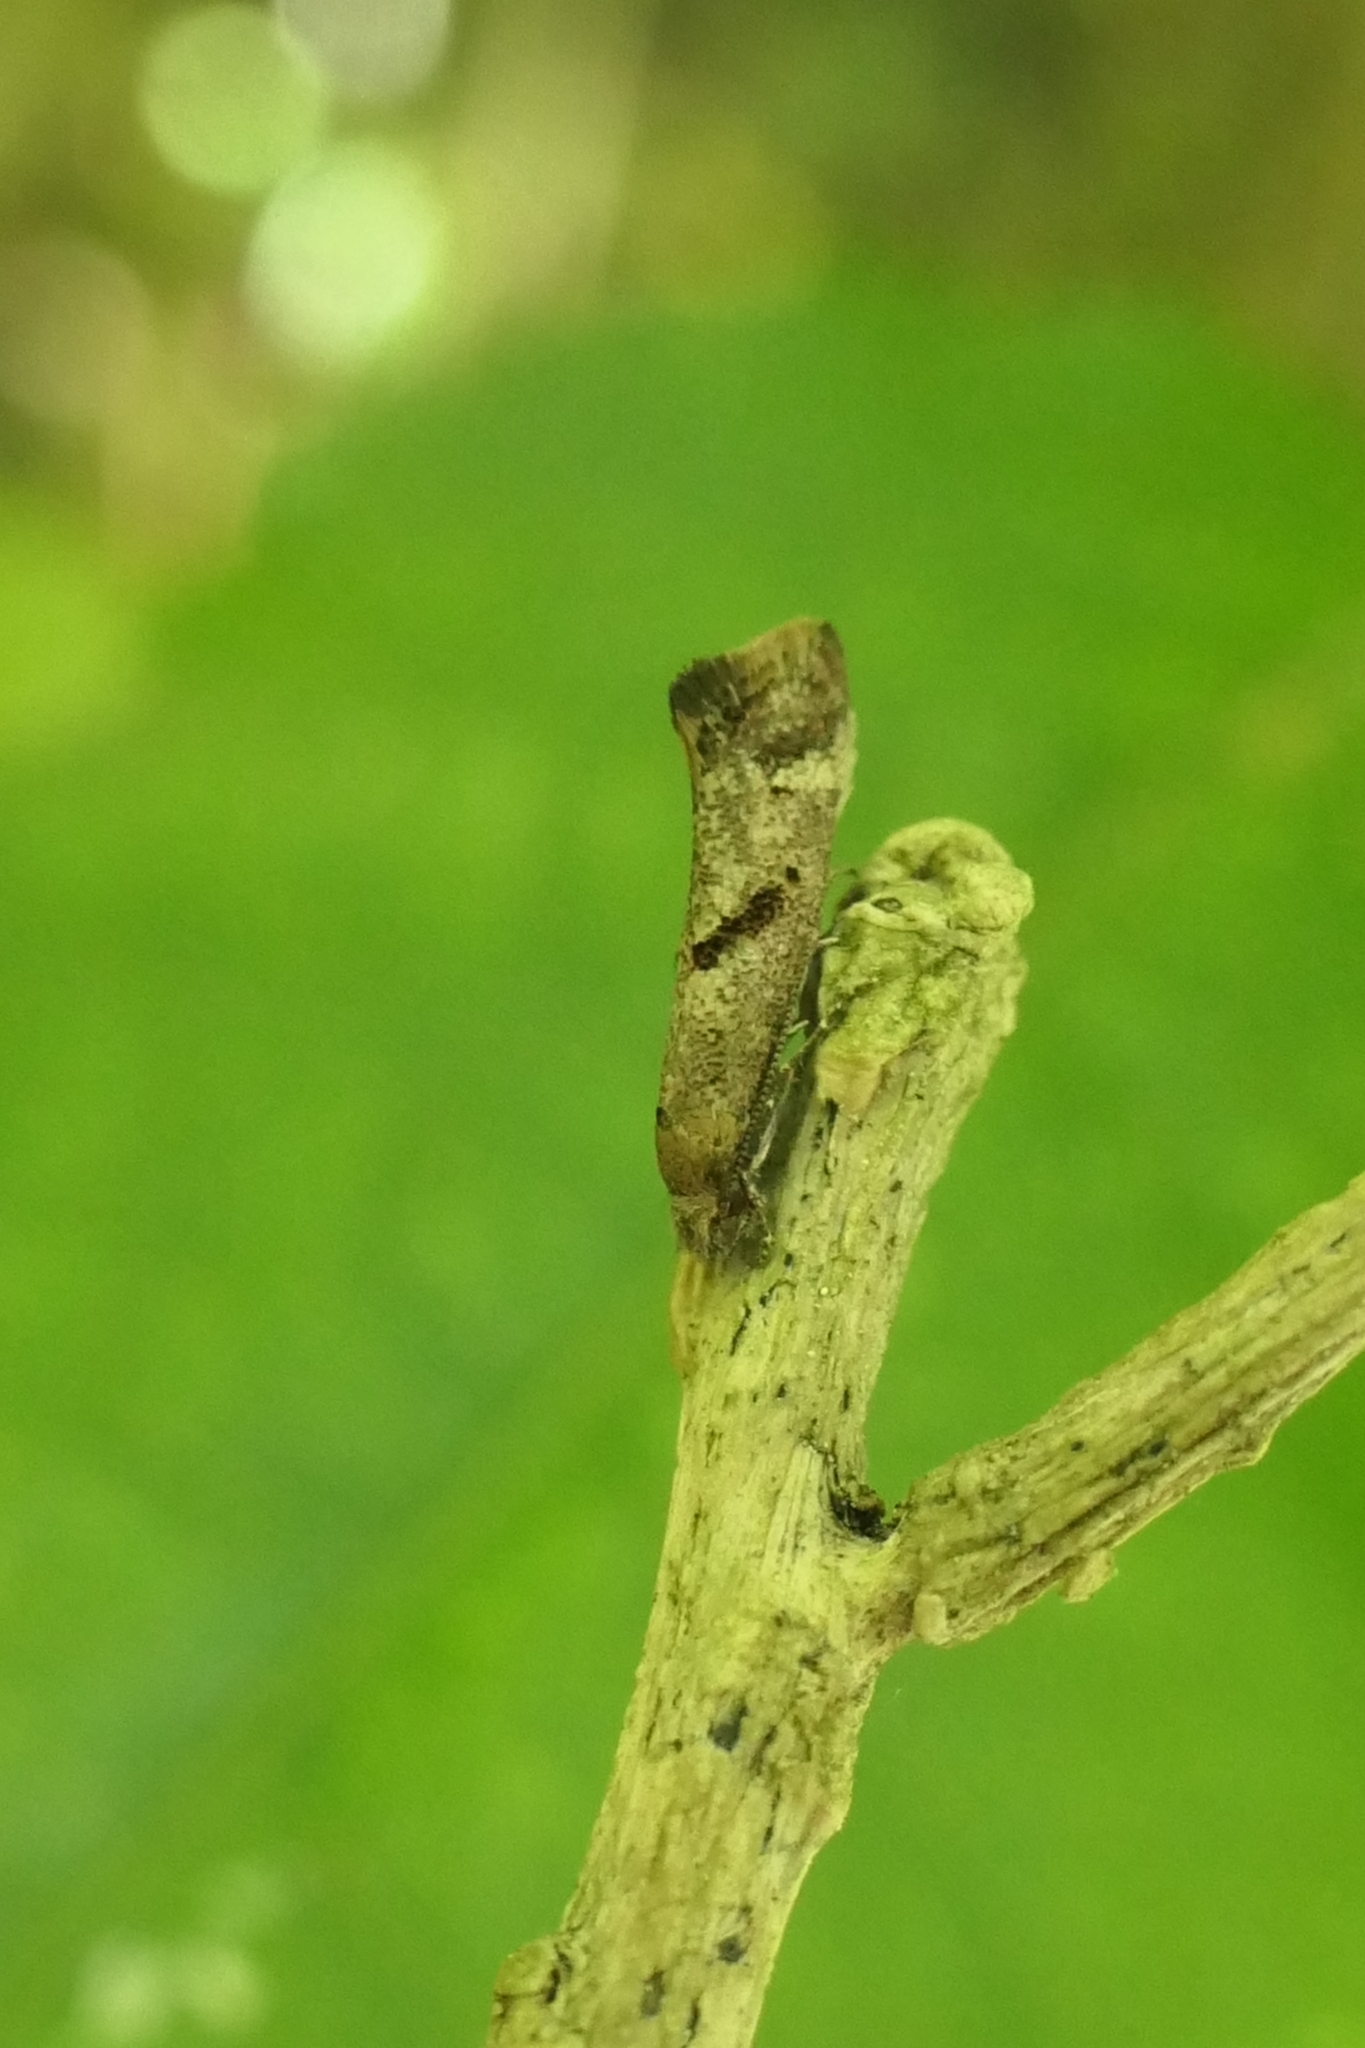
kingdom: Animalia
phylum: Arthropoda
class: Insecta
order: Lepidoptera
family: Tineidae
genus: Tinea
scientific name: Tinea mochlota
